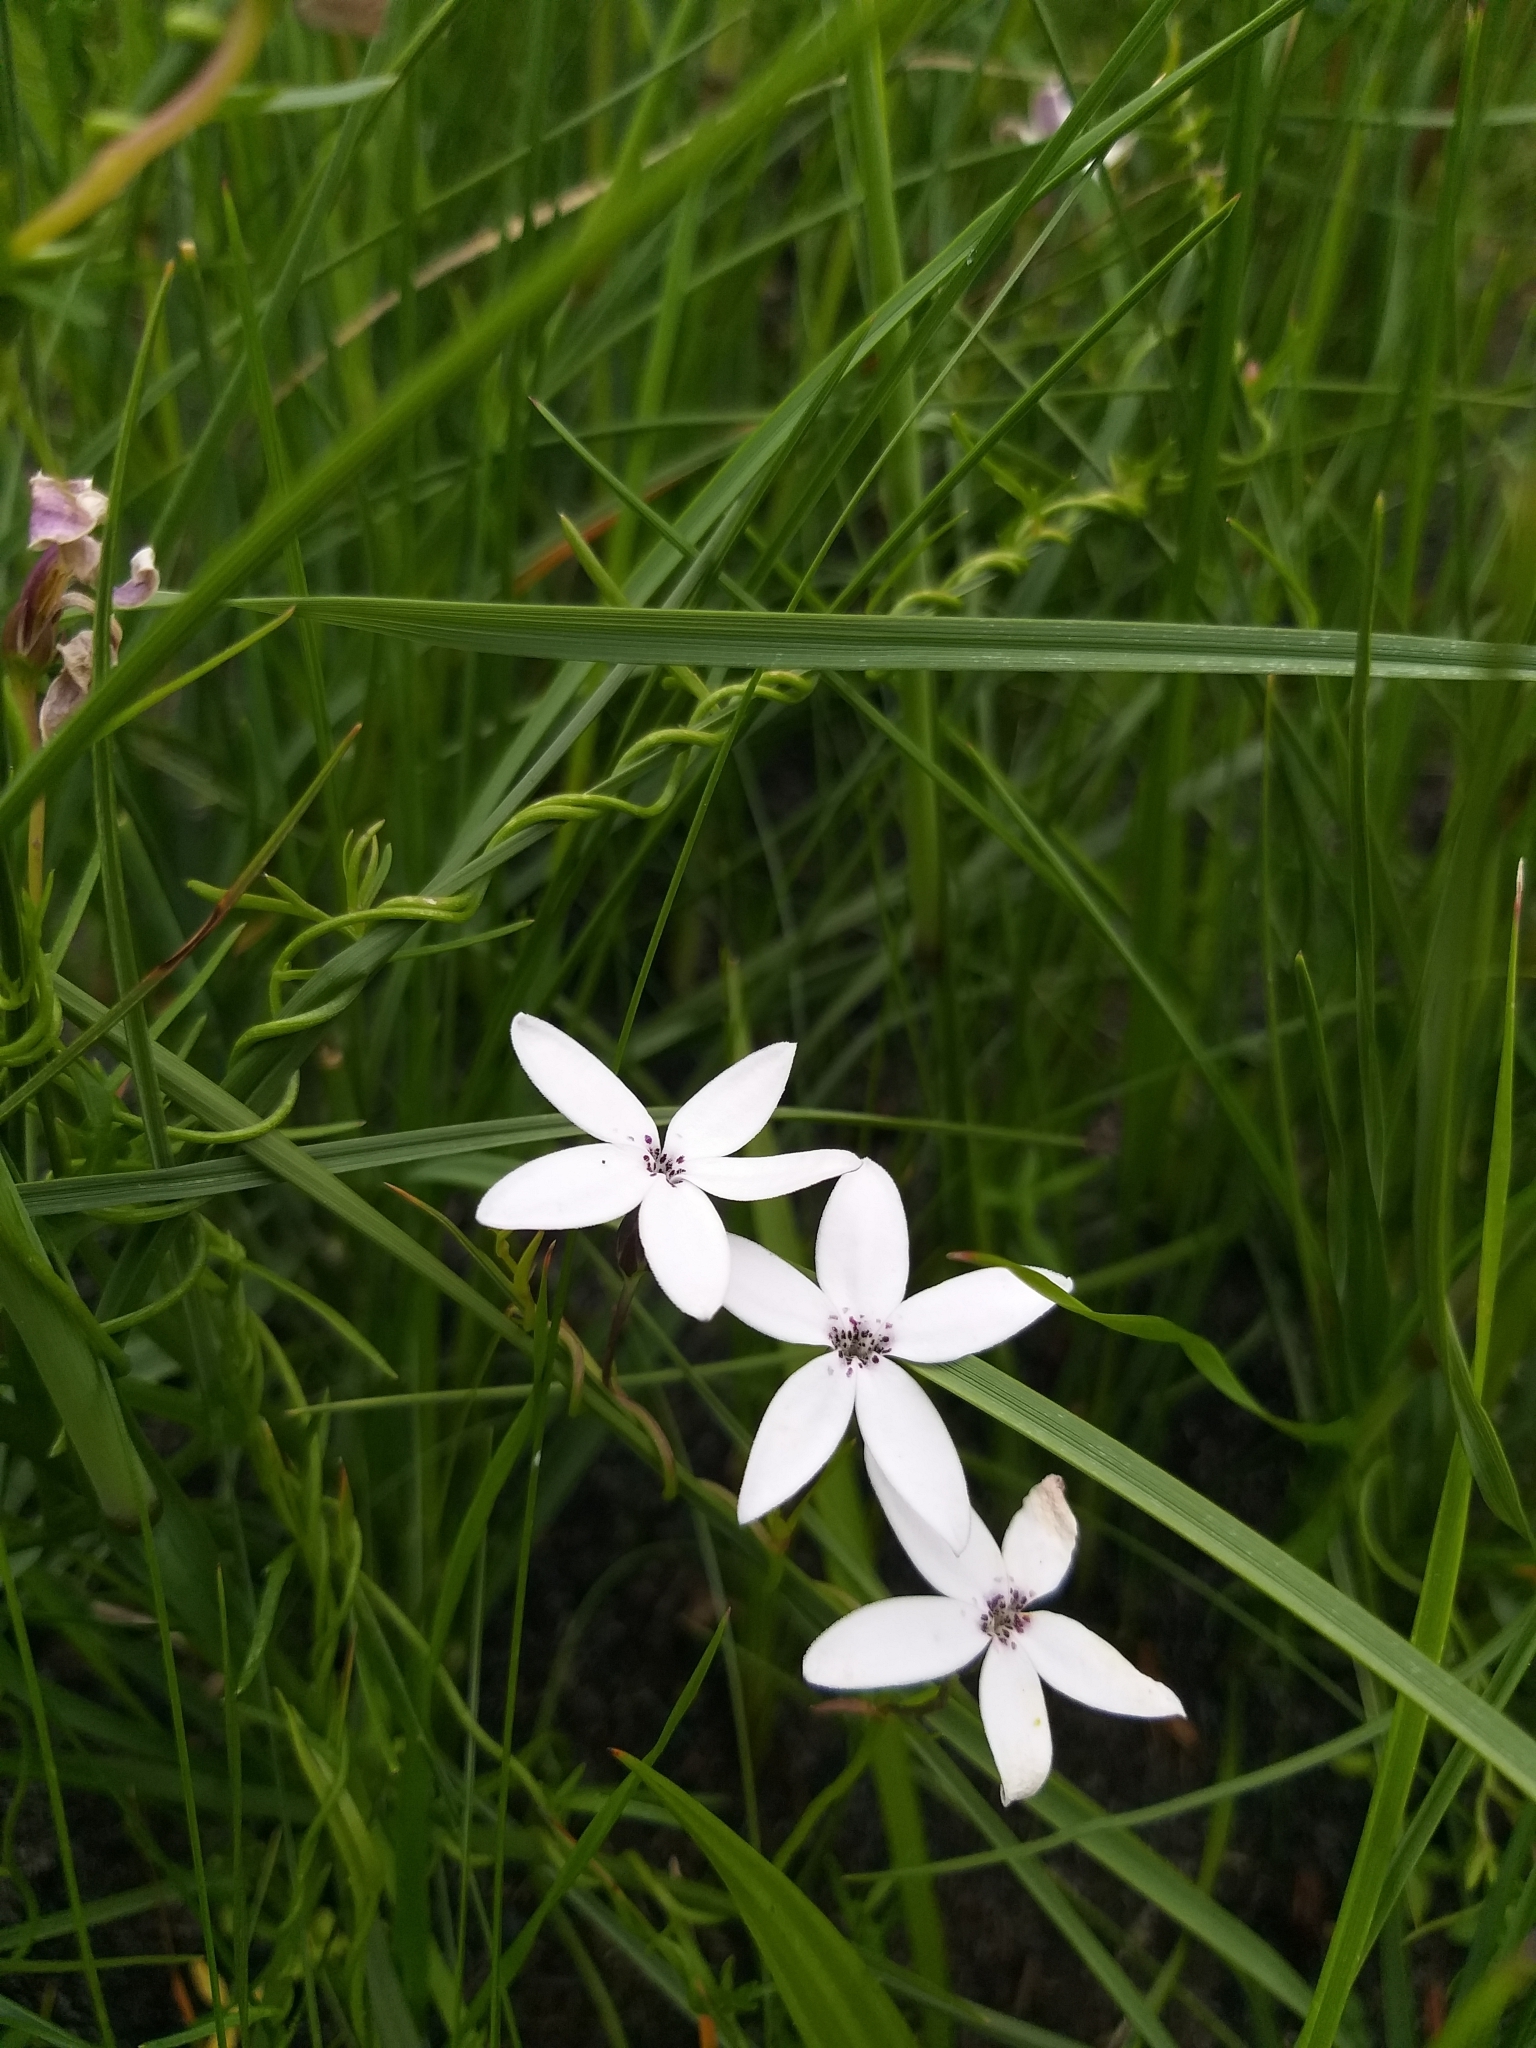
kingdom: Plantae
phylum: Tracheophyta
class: Magnoliopsida
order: Asterales
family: Campanulaceae
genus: Cyphia
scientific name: Cyphia volubilis
